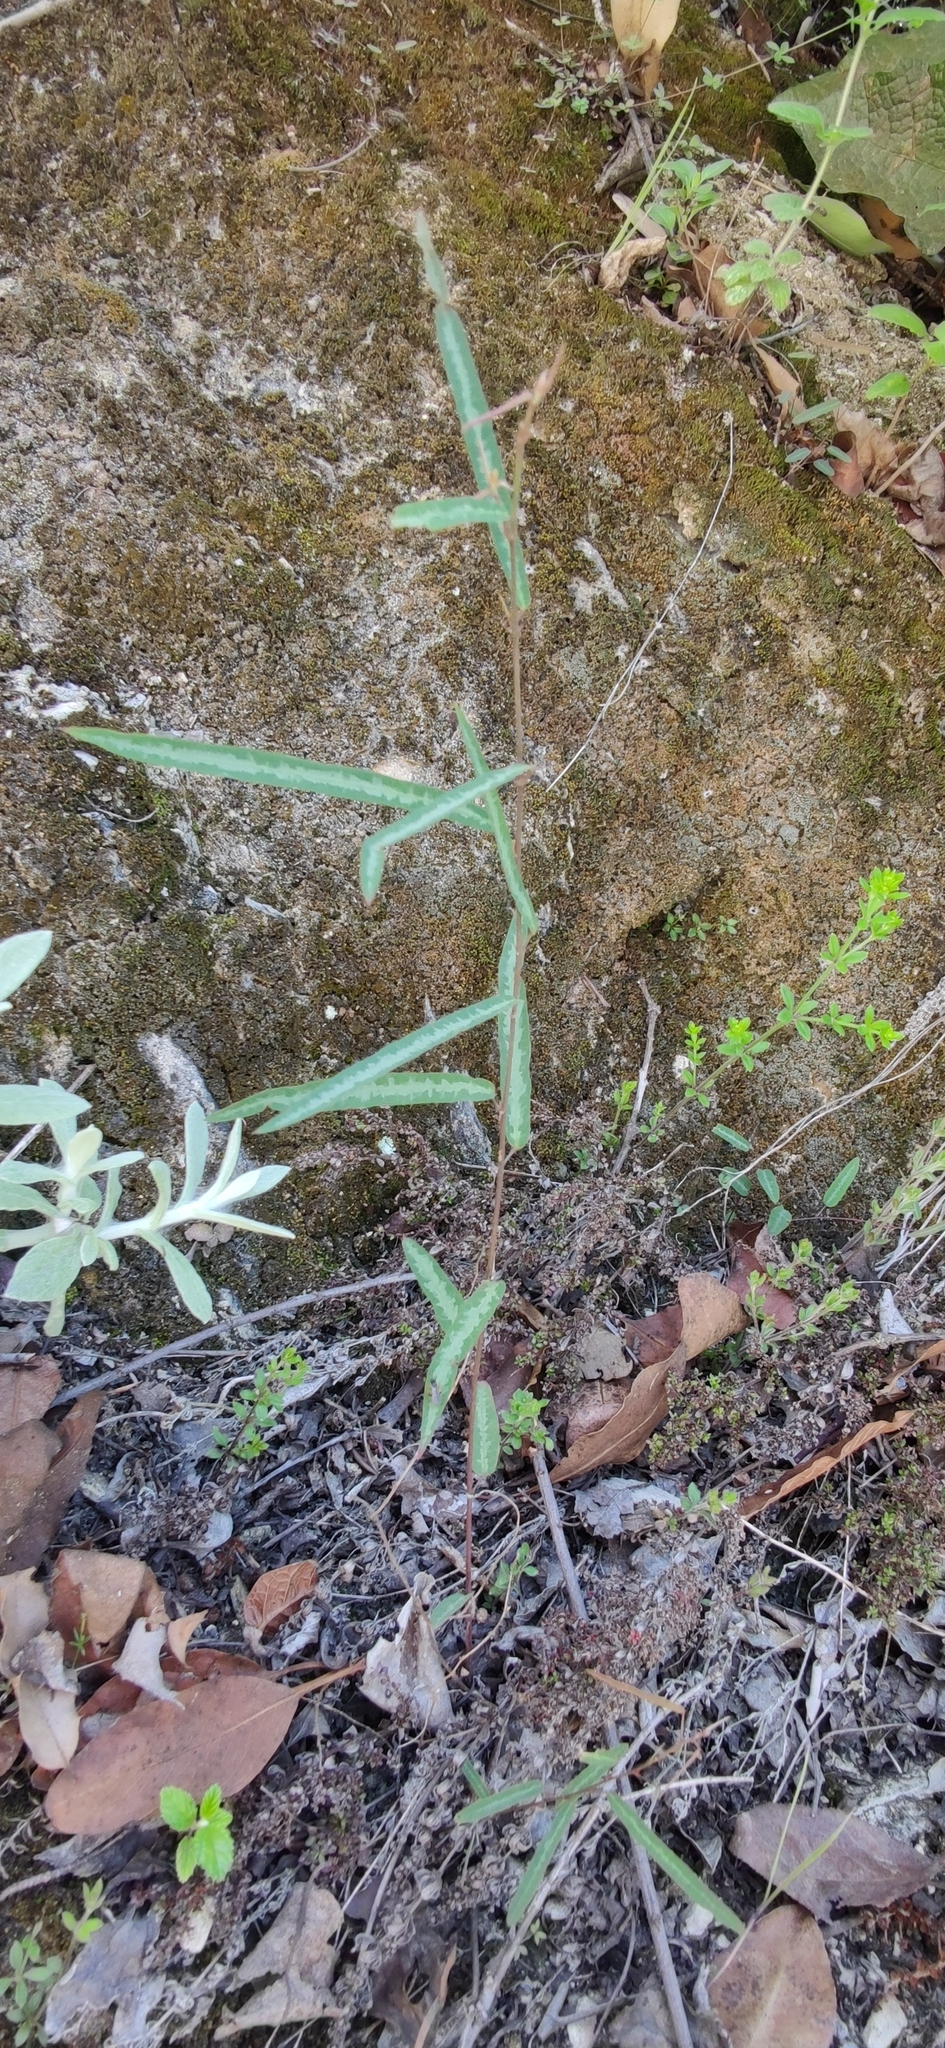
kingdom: Plantae
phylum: Tracheophyta
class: Magnoliopsida
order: Fabales
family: Fabaceae
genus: Desmodium
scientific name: Desmodium psilophyllum
